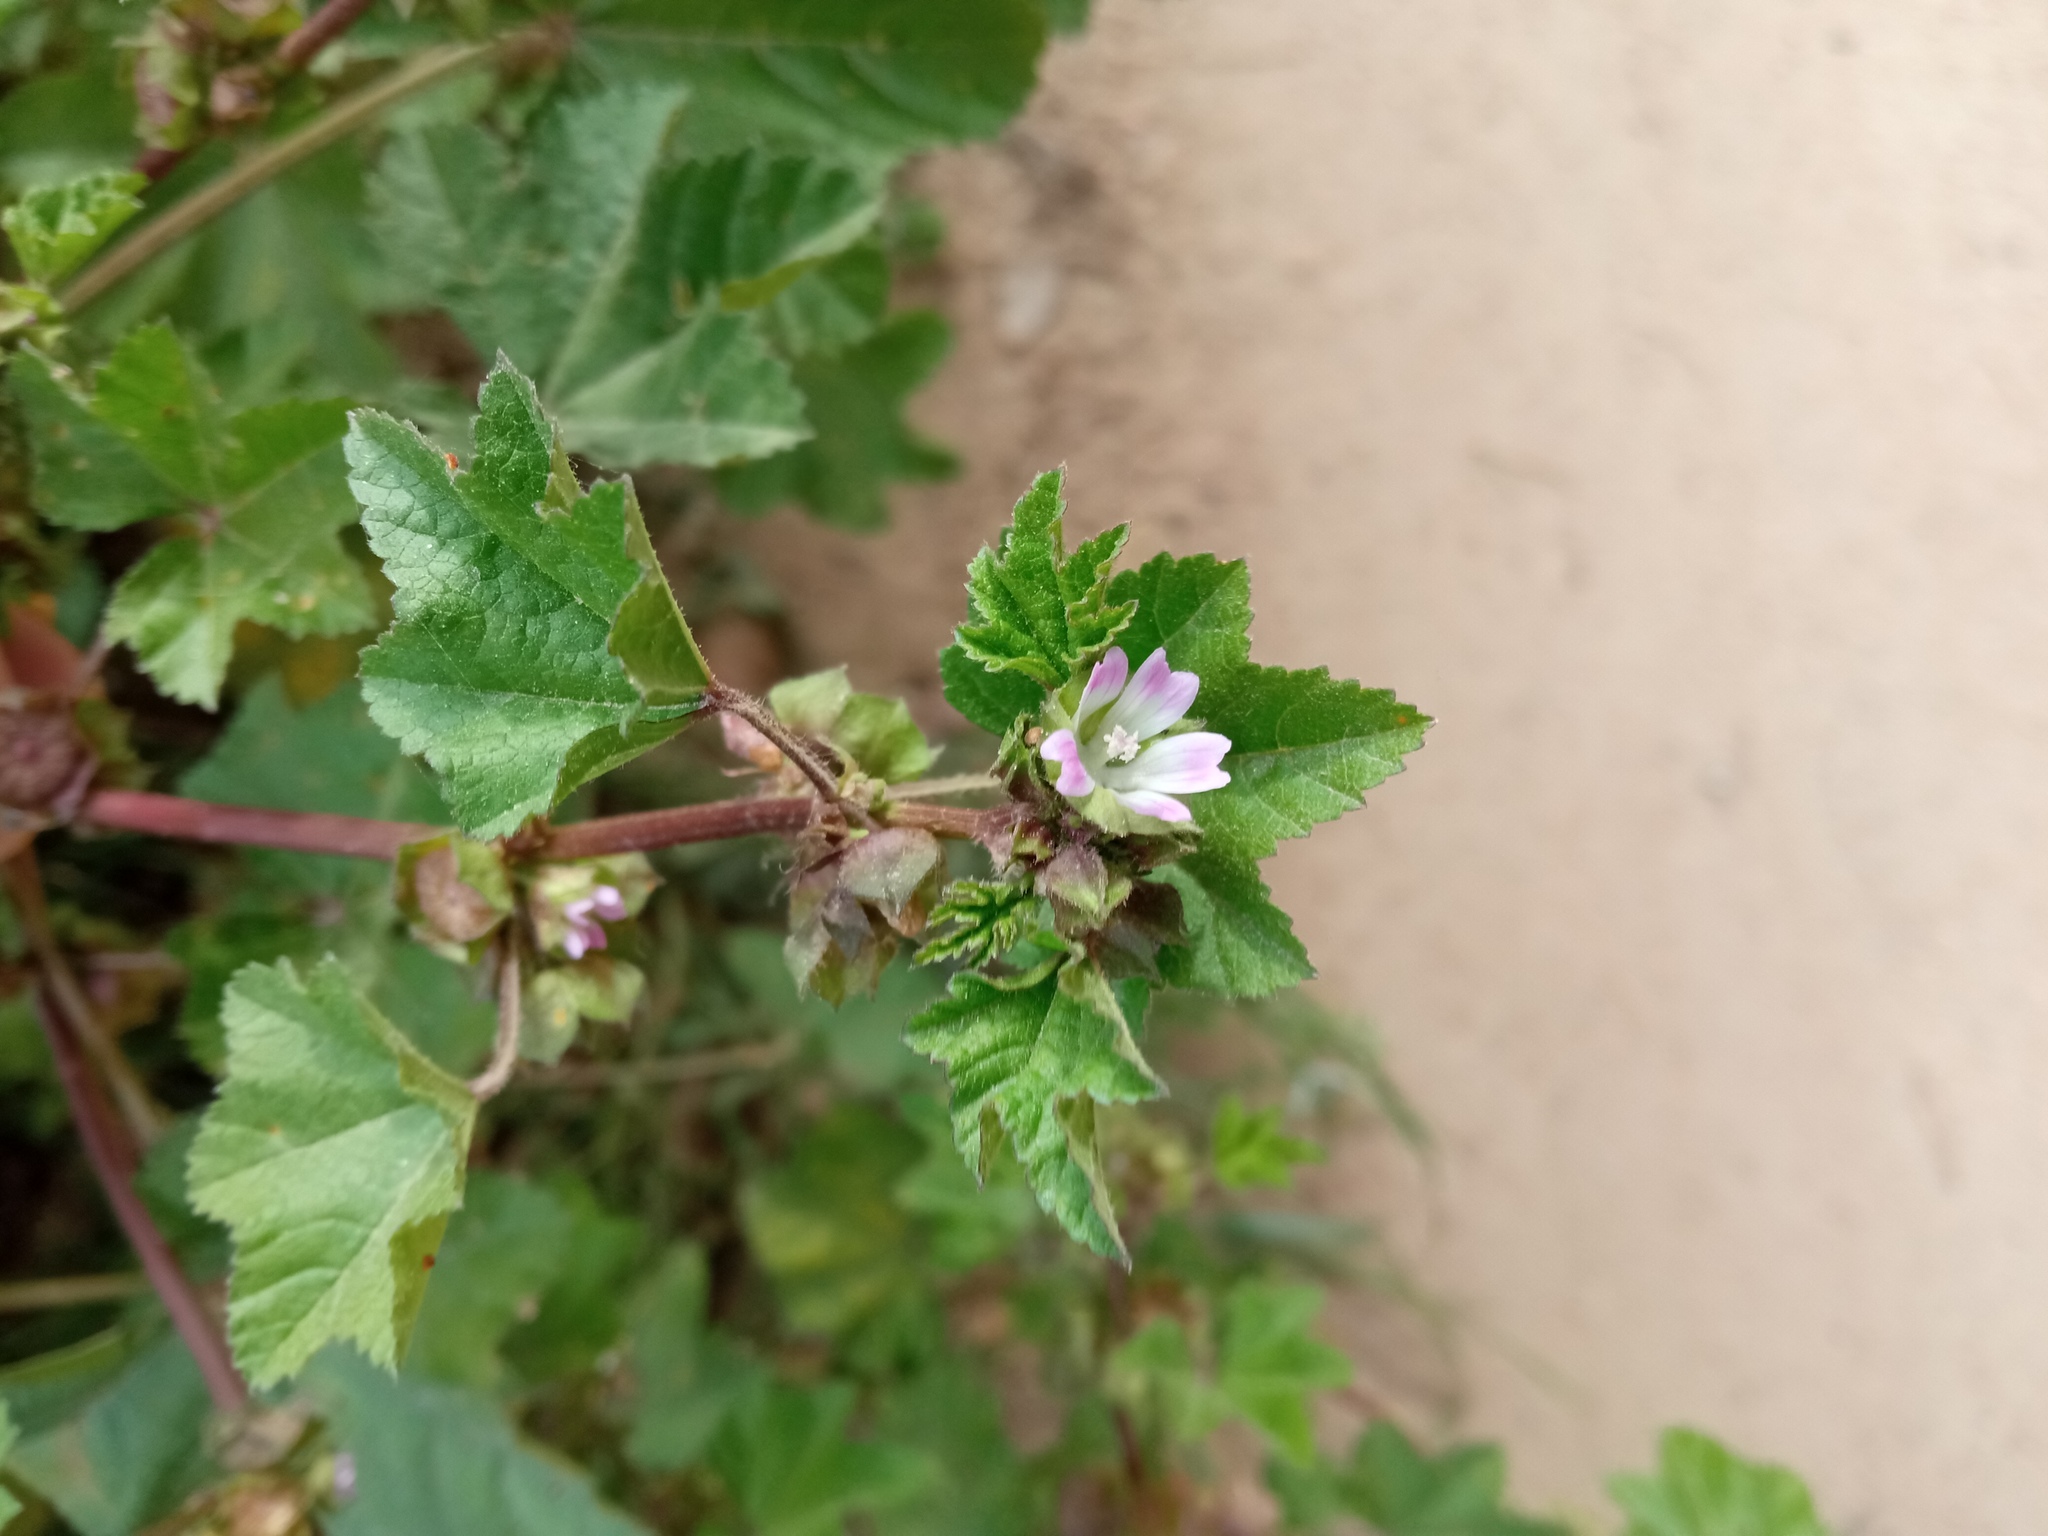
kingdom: Plantae
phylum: Tracheophyta
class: Magnoliopsida
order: Malvales
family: Malvaceae
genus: Malva
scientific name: Malva parviflora
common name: Least mallow
